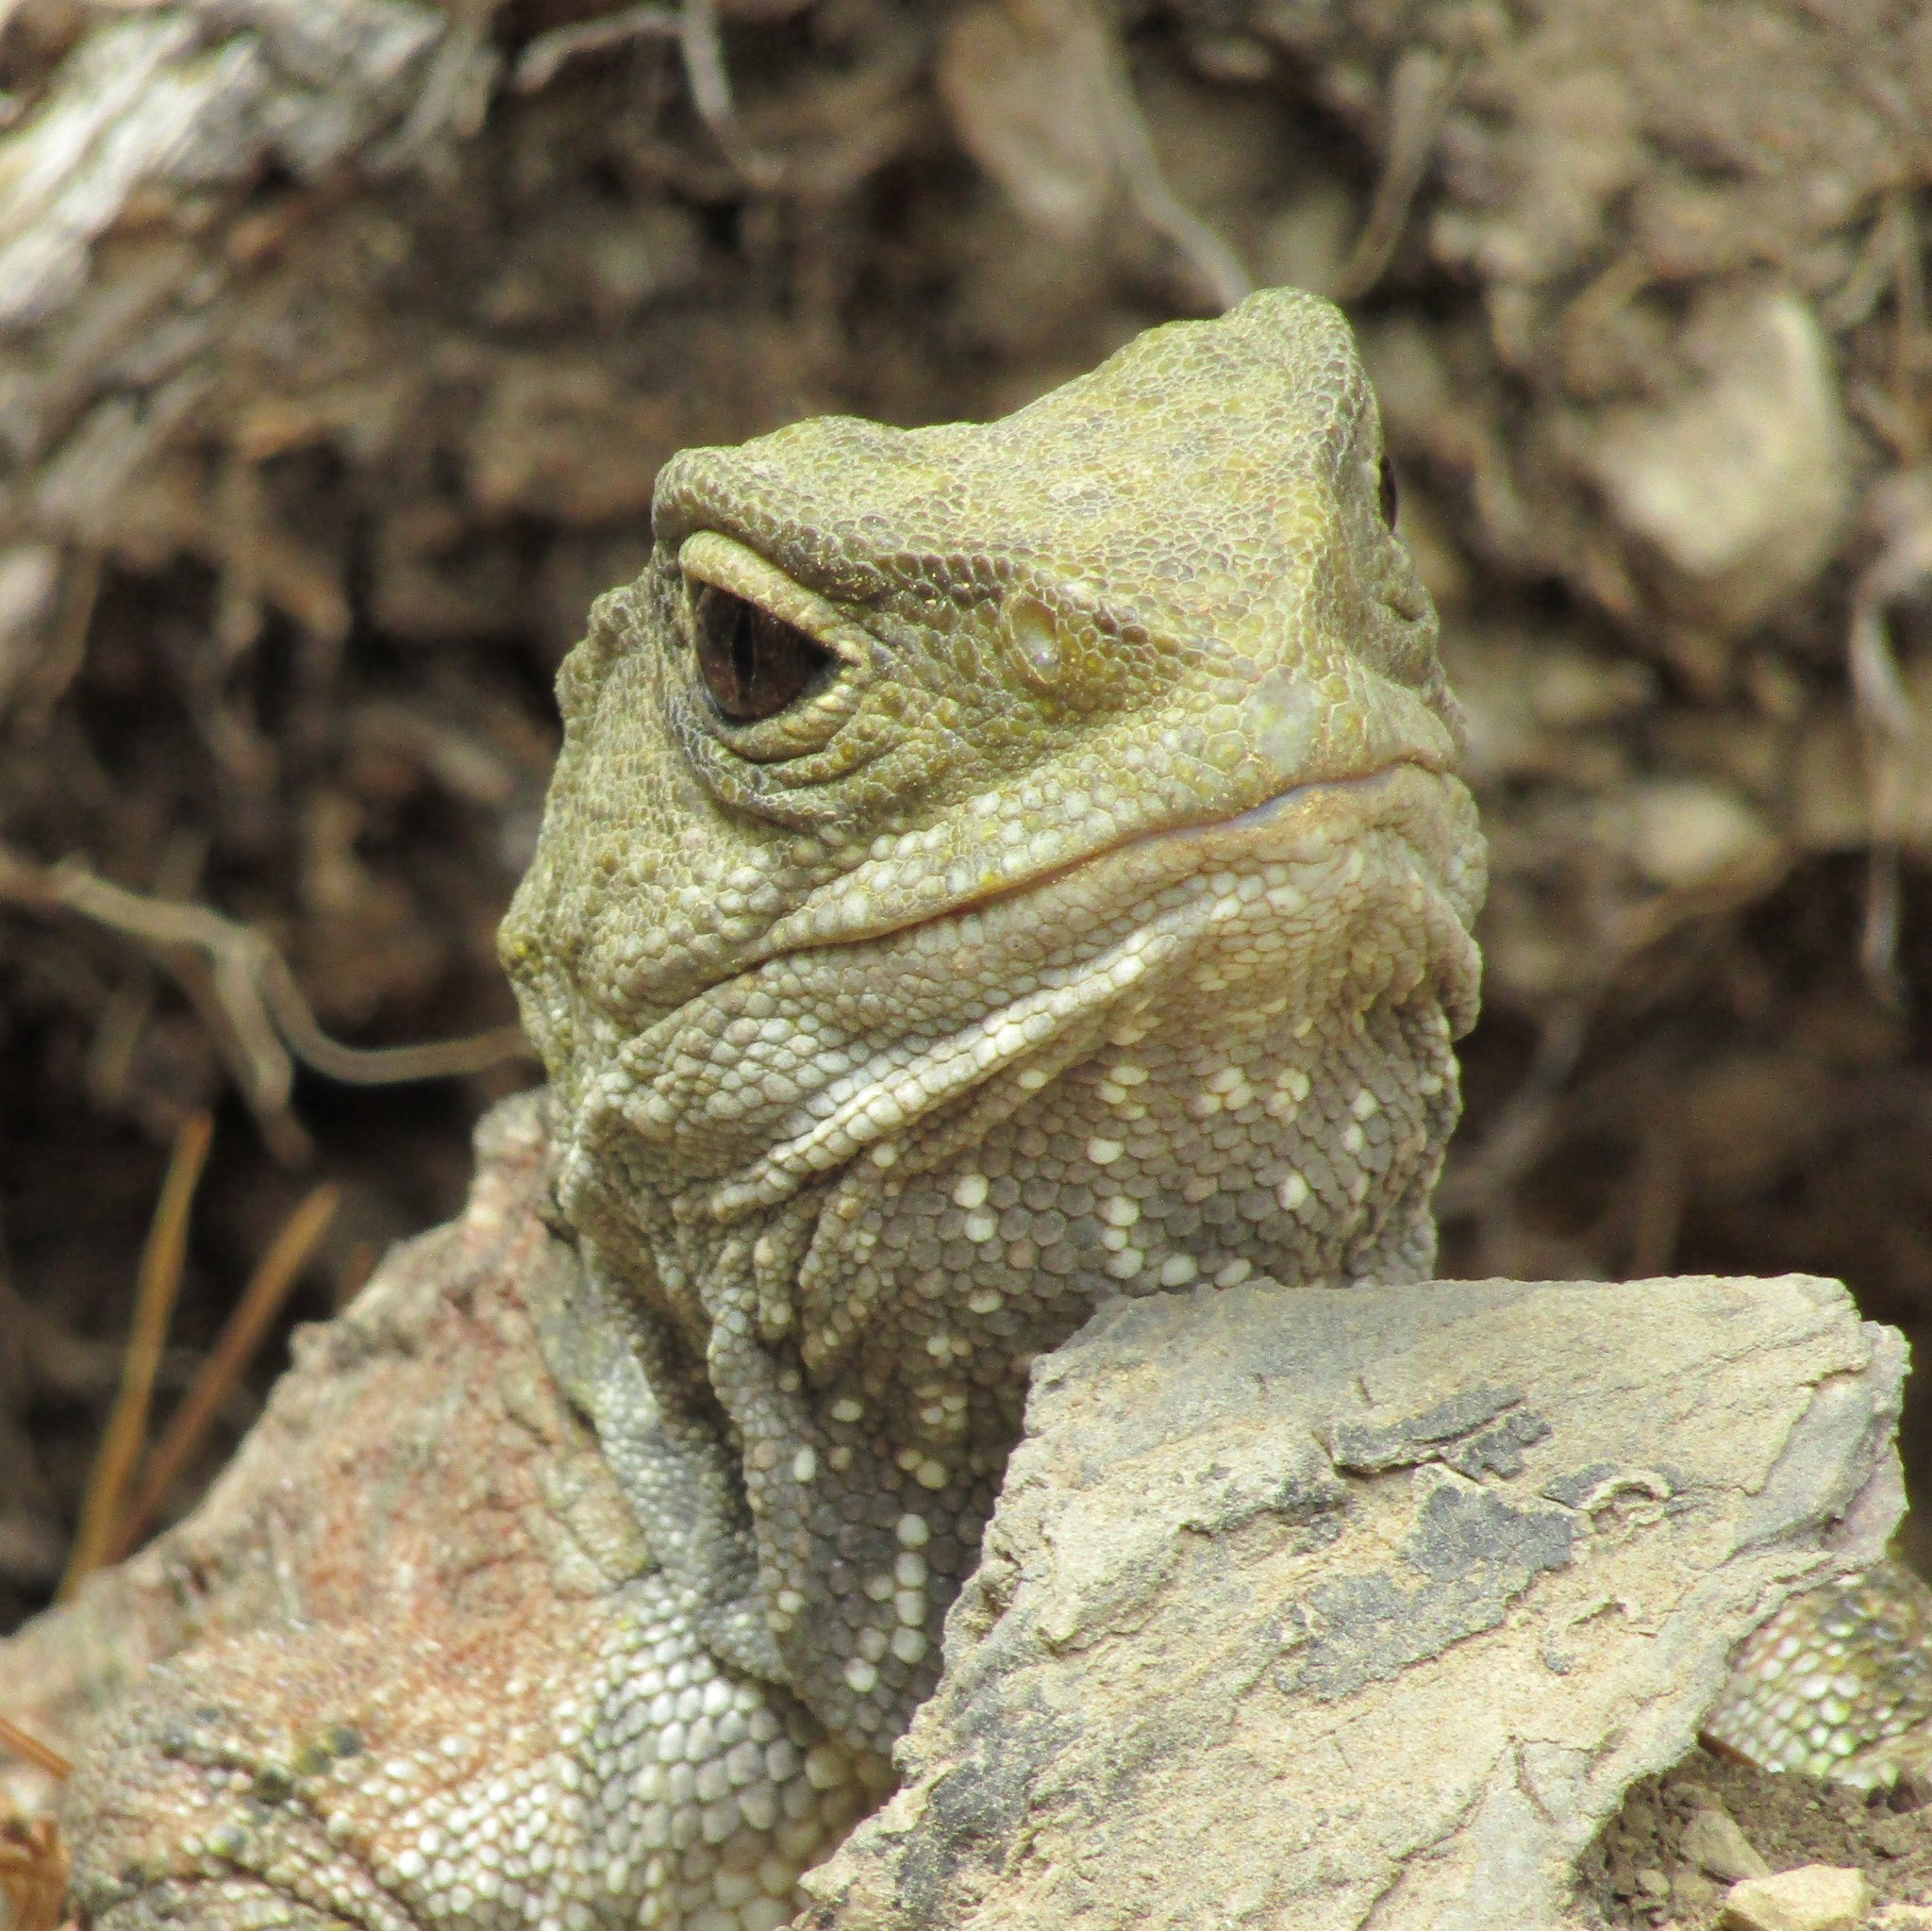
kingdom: Animalia
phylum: Chordata
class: Sphenodontia
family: Sphenodontidae
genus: Sphenodon
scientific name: Sphenodon punctatus
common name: Tuatara
